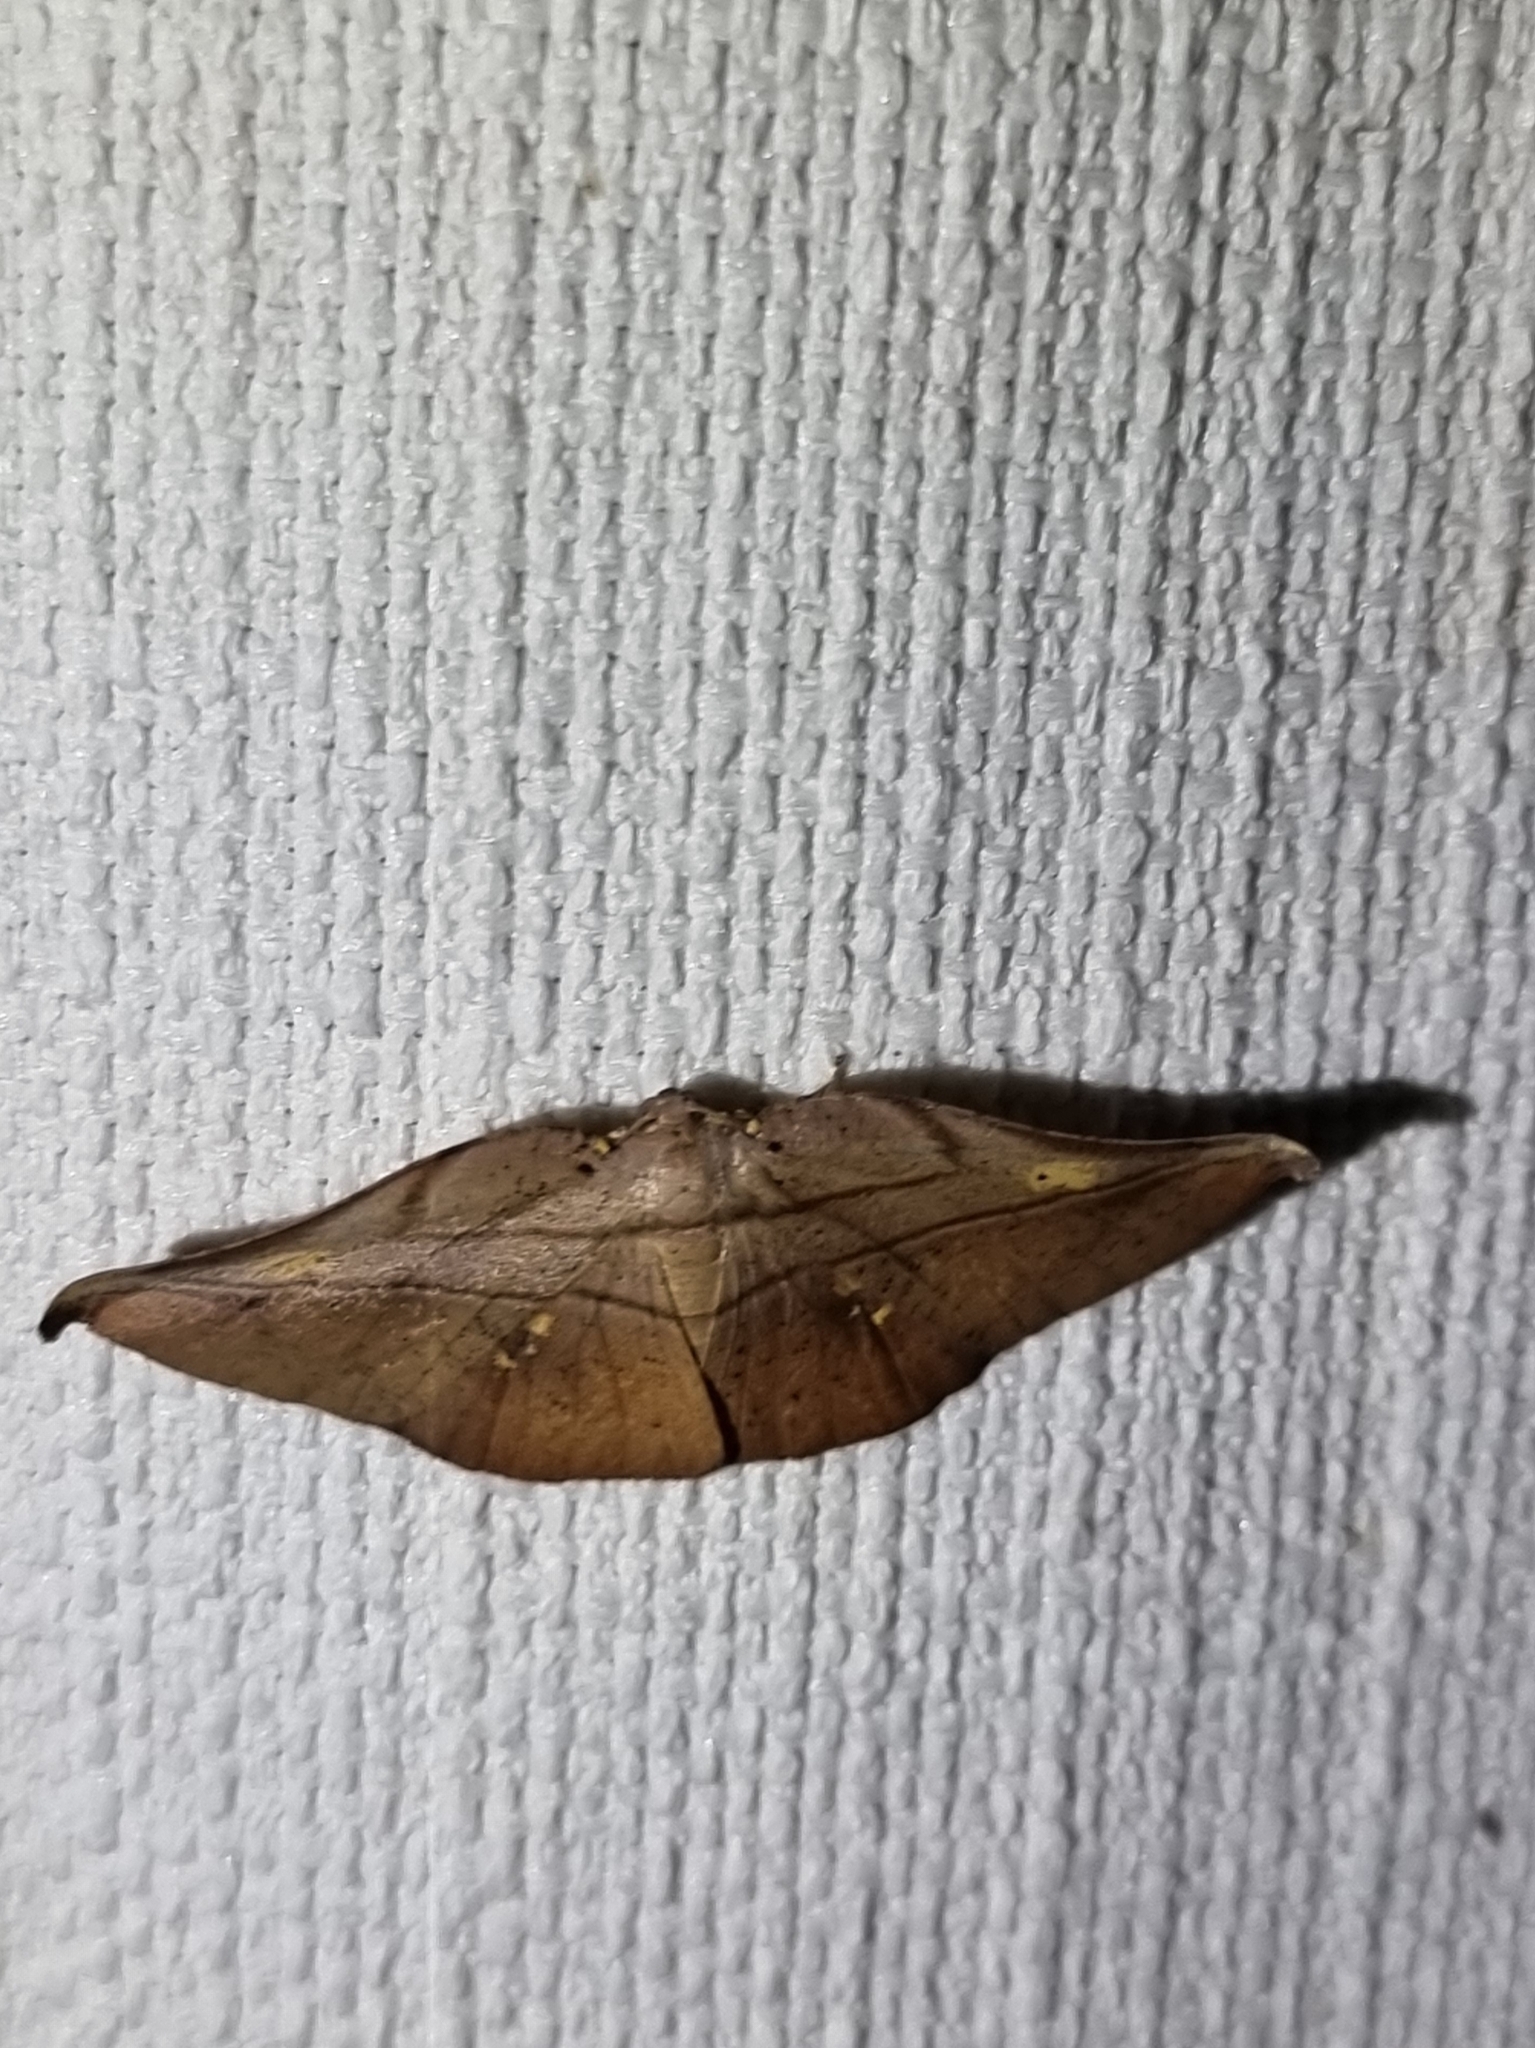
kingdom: Animalia
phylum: Arthropoda
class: Insecta
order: Lepidoptera
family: Geometridae
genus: Xenomusa
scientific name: Xenomusa metallica
